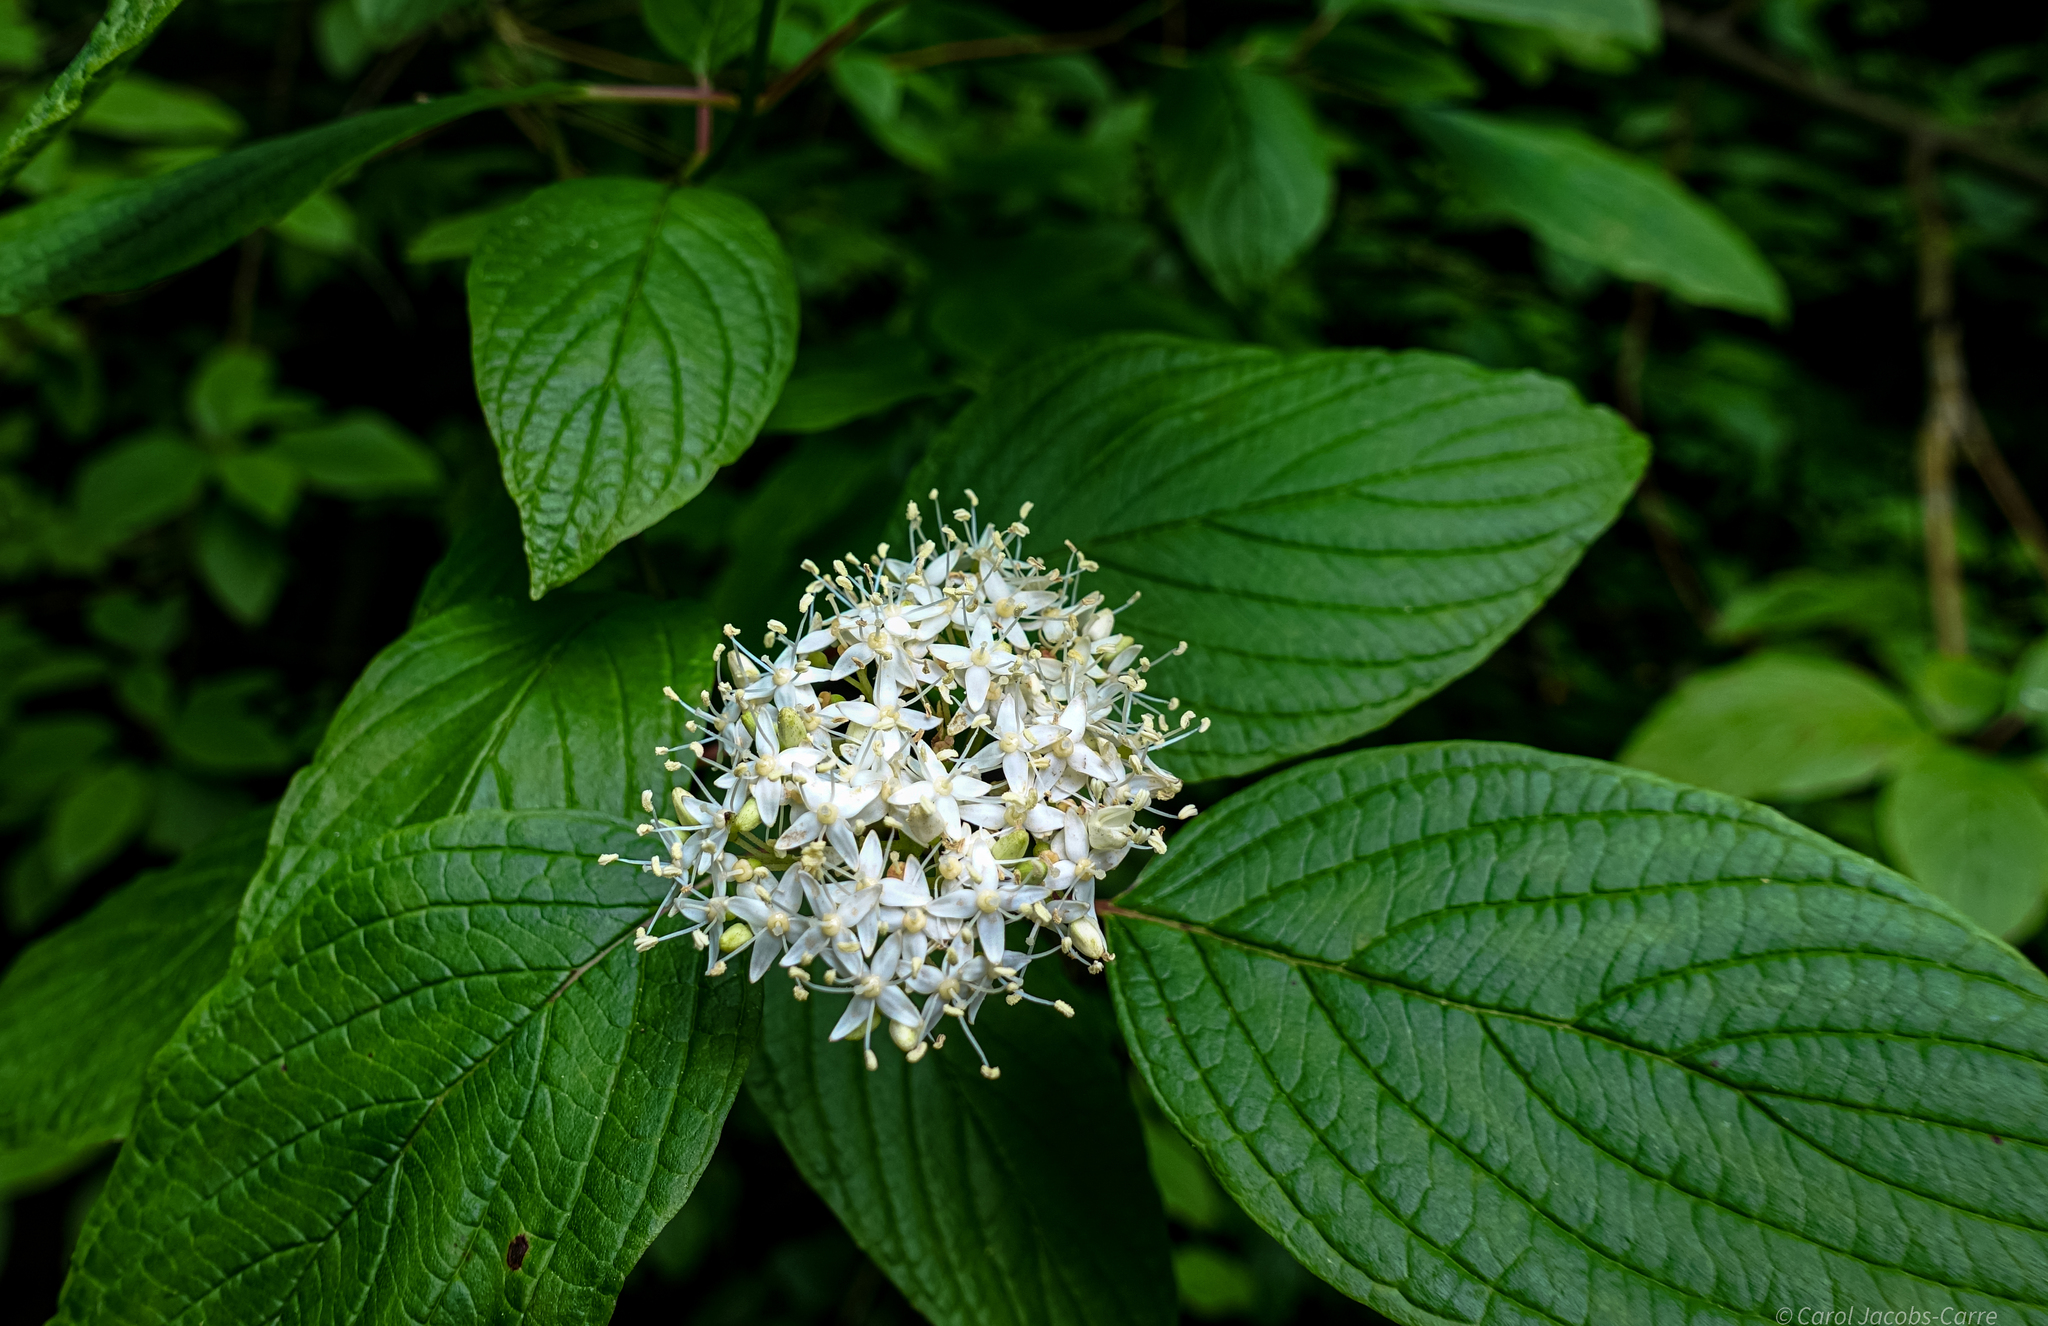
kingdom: Plantae
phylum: Tracheophyta
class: Magnoliopsida
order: Cornales
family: Cornaceae
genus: Cornus
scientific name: Cornus sericea
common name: Red-osier dogwood
